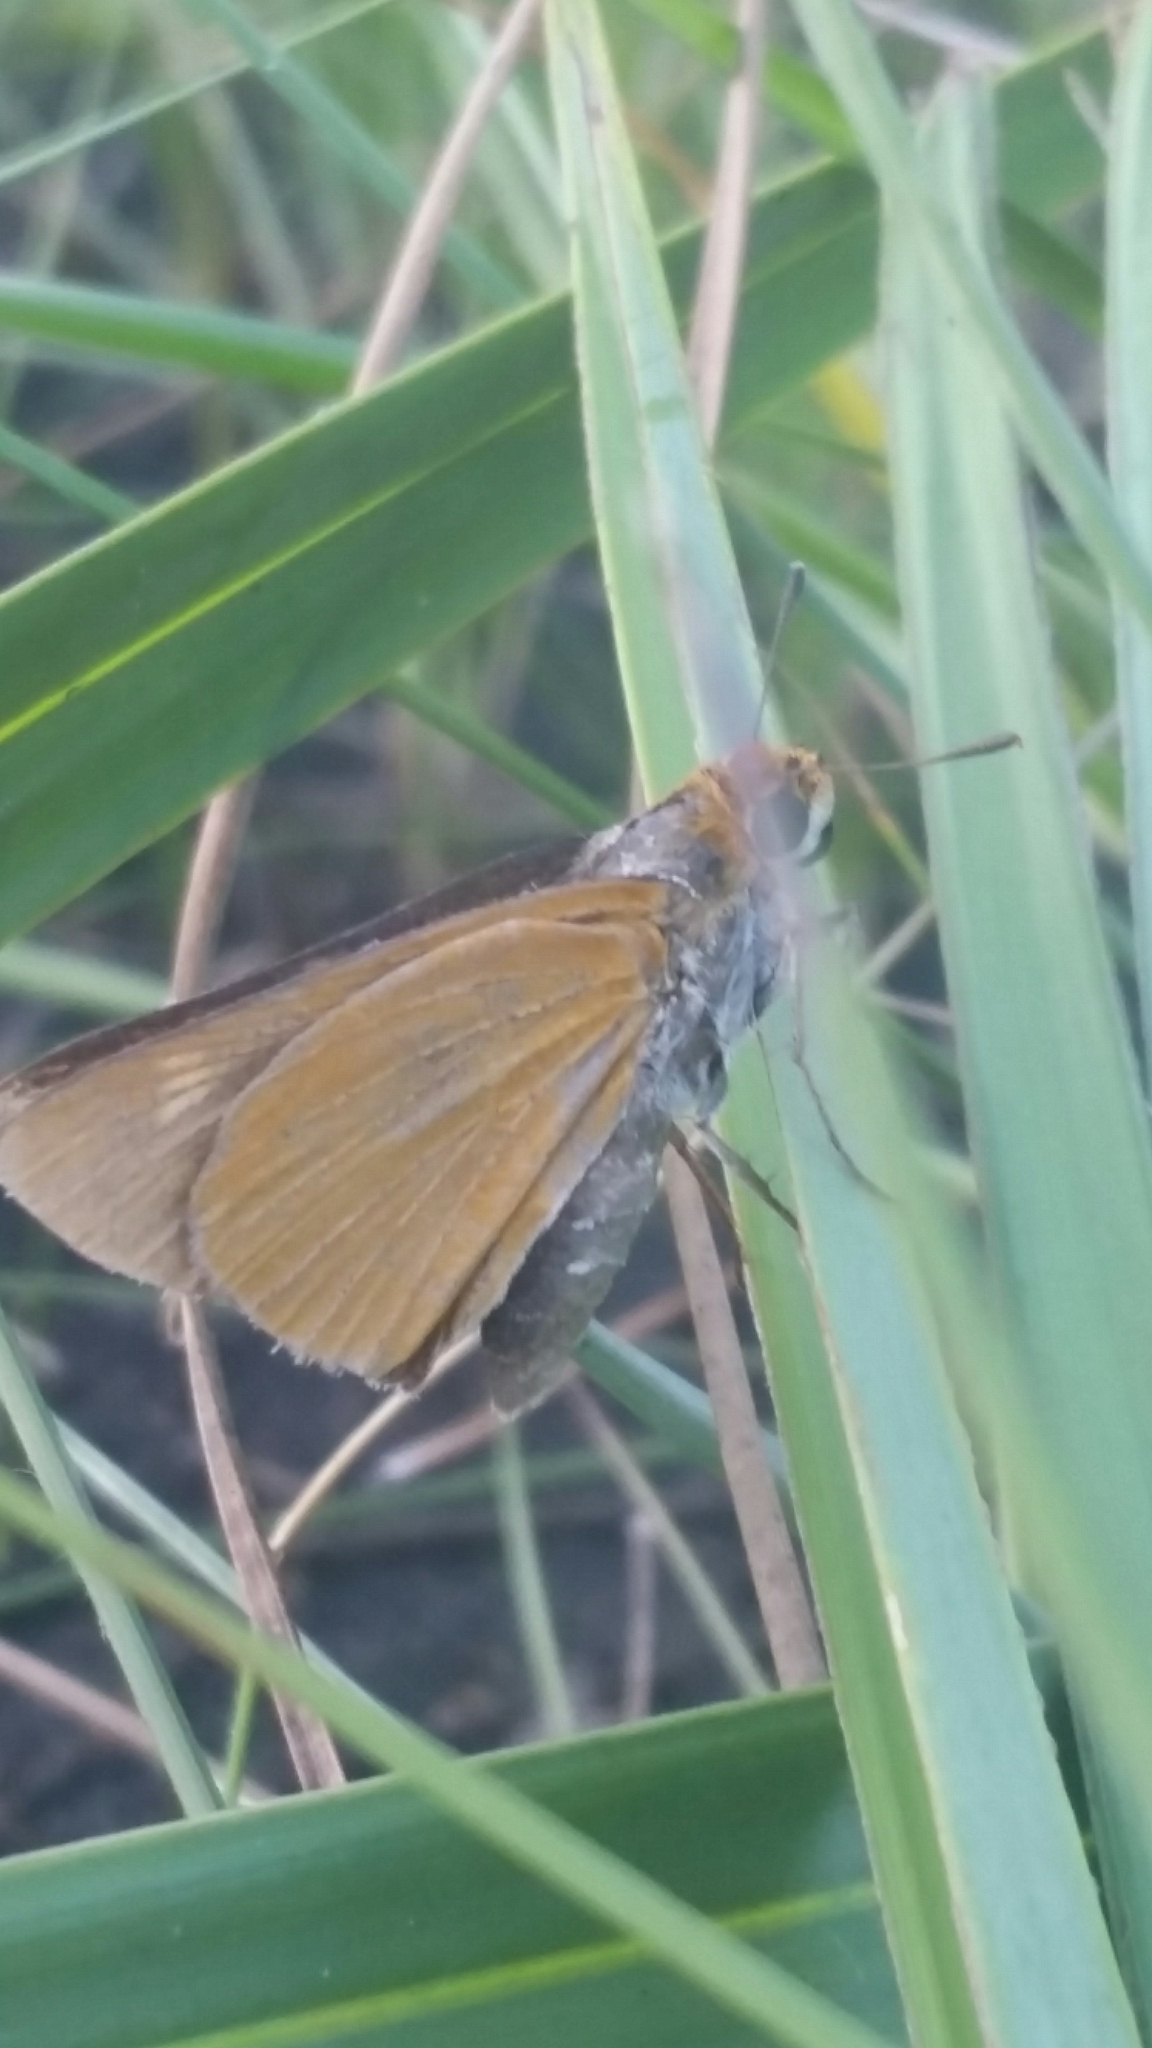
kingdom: Animalia
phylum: Arthropoda
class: Insecta
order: Lepidoptera
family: Hesperiidae
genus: Euphyes
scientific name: Euphyes arpa
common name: Palmetto skipper
